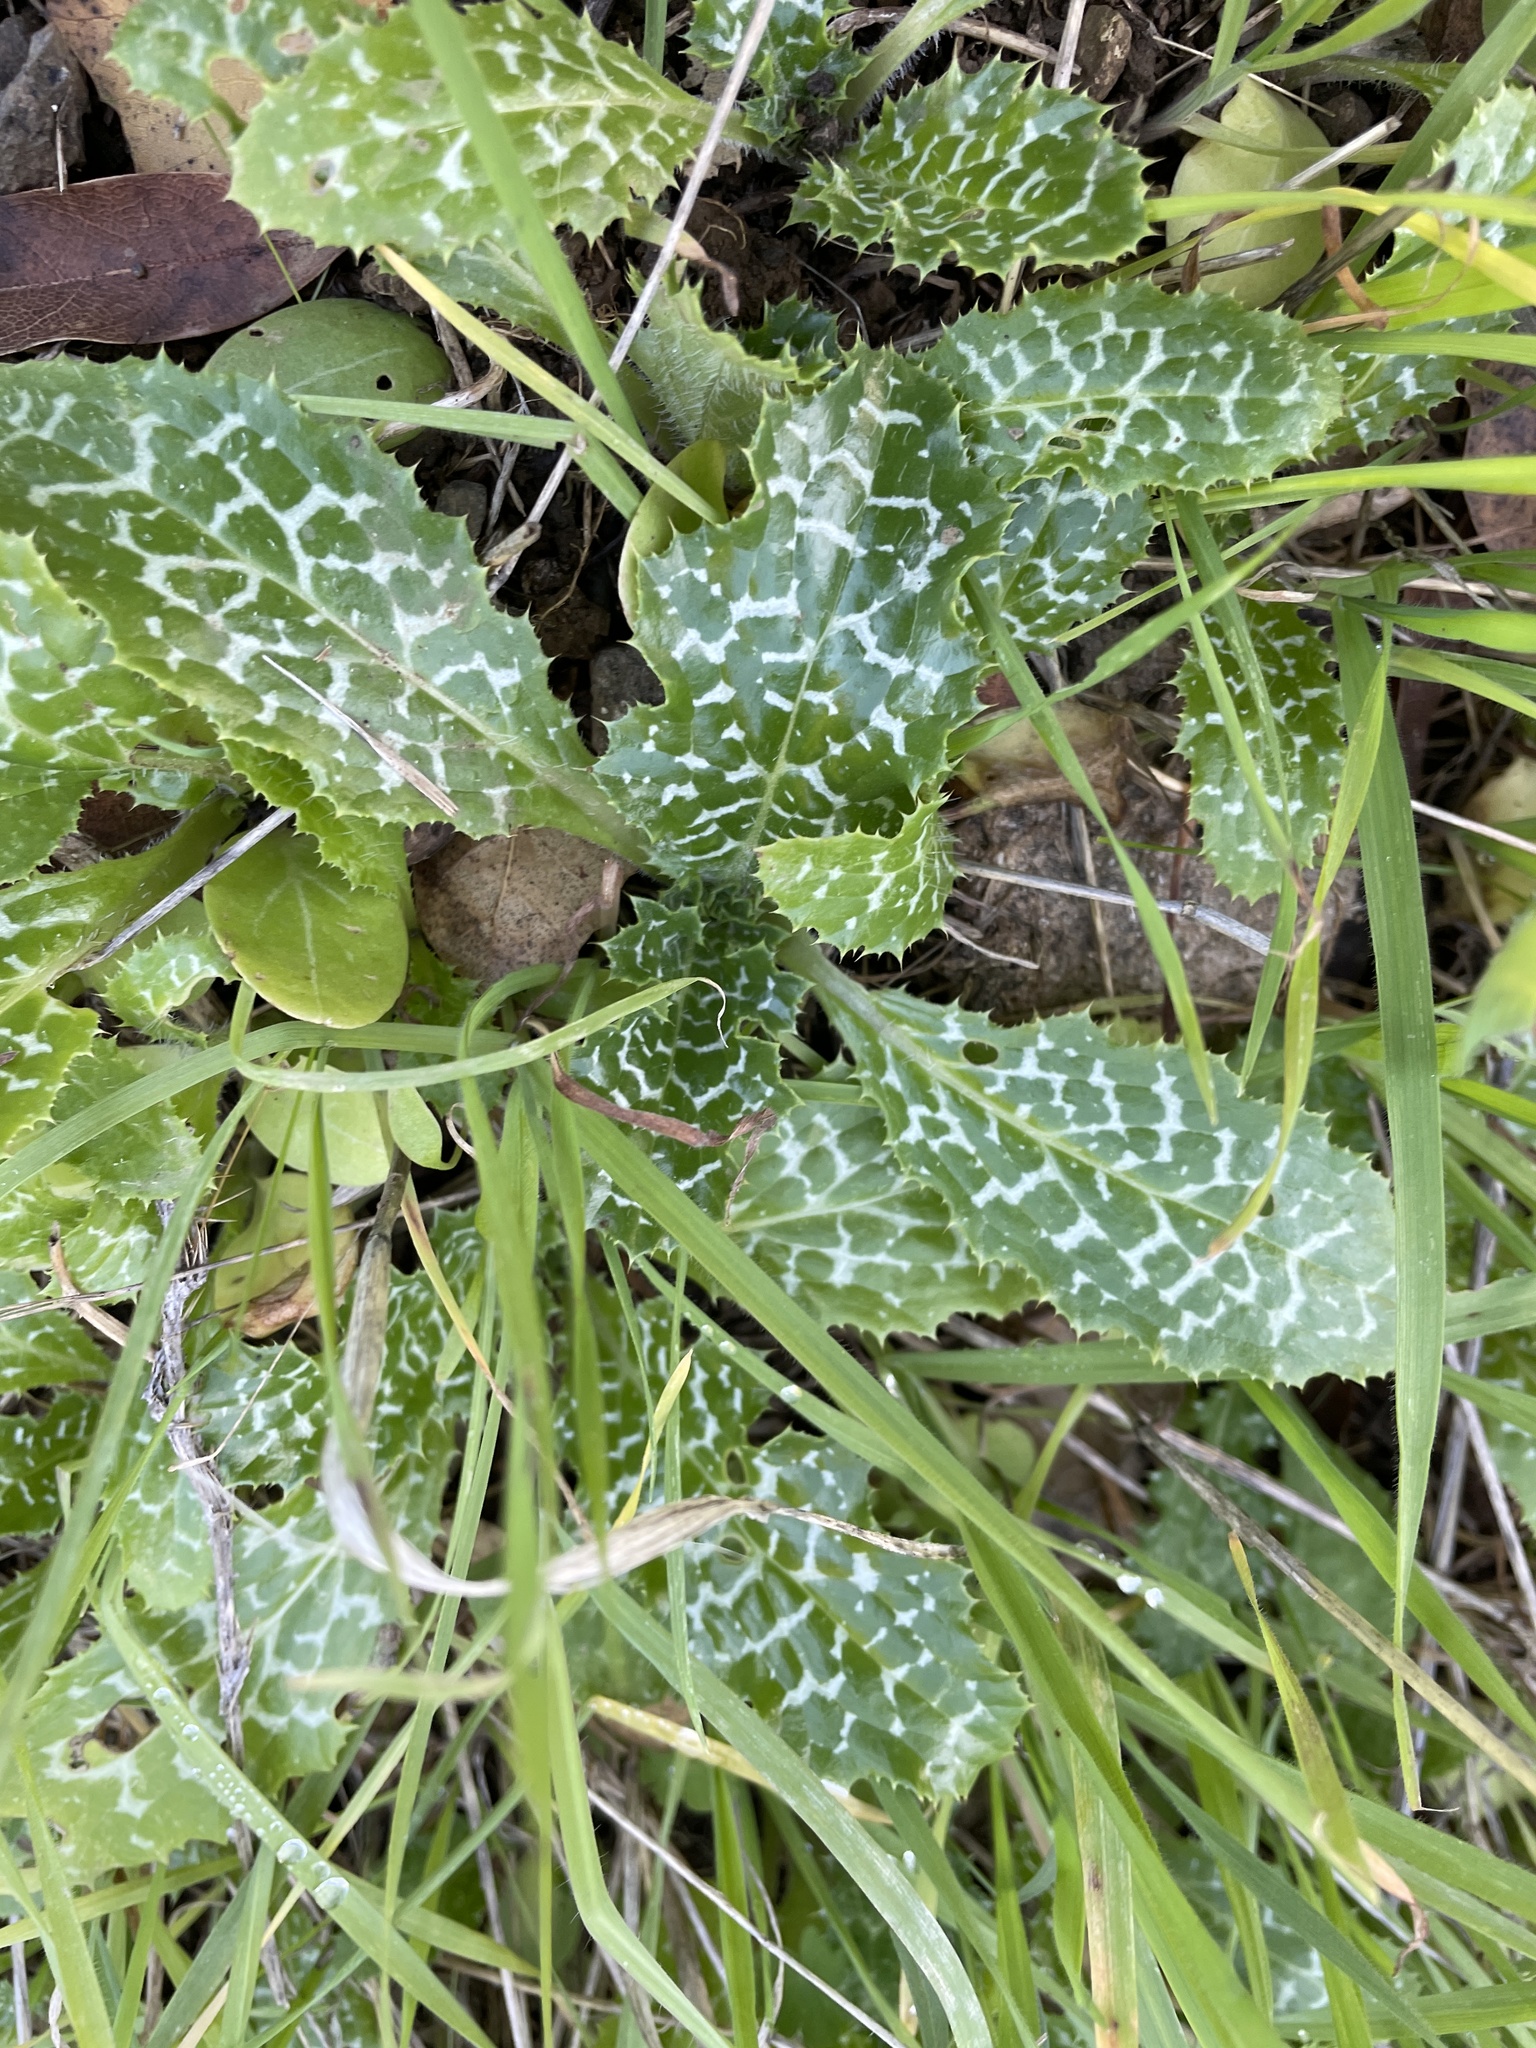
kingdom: Plantae
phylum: Tracheophyta
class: Magnoliopsida
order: Asterales
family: Asteraceae
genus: Silybum
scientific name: Silybum marianum
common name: Milk thistle
